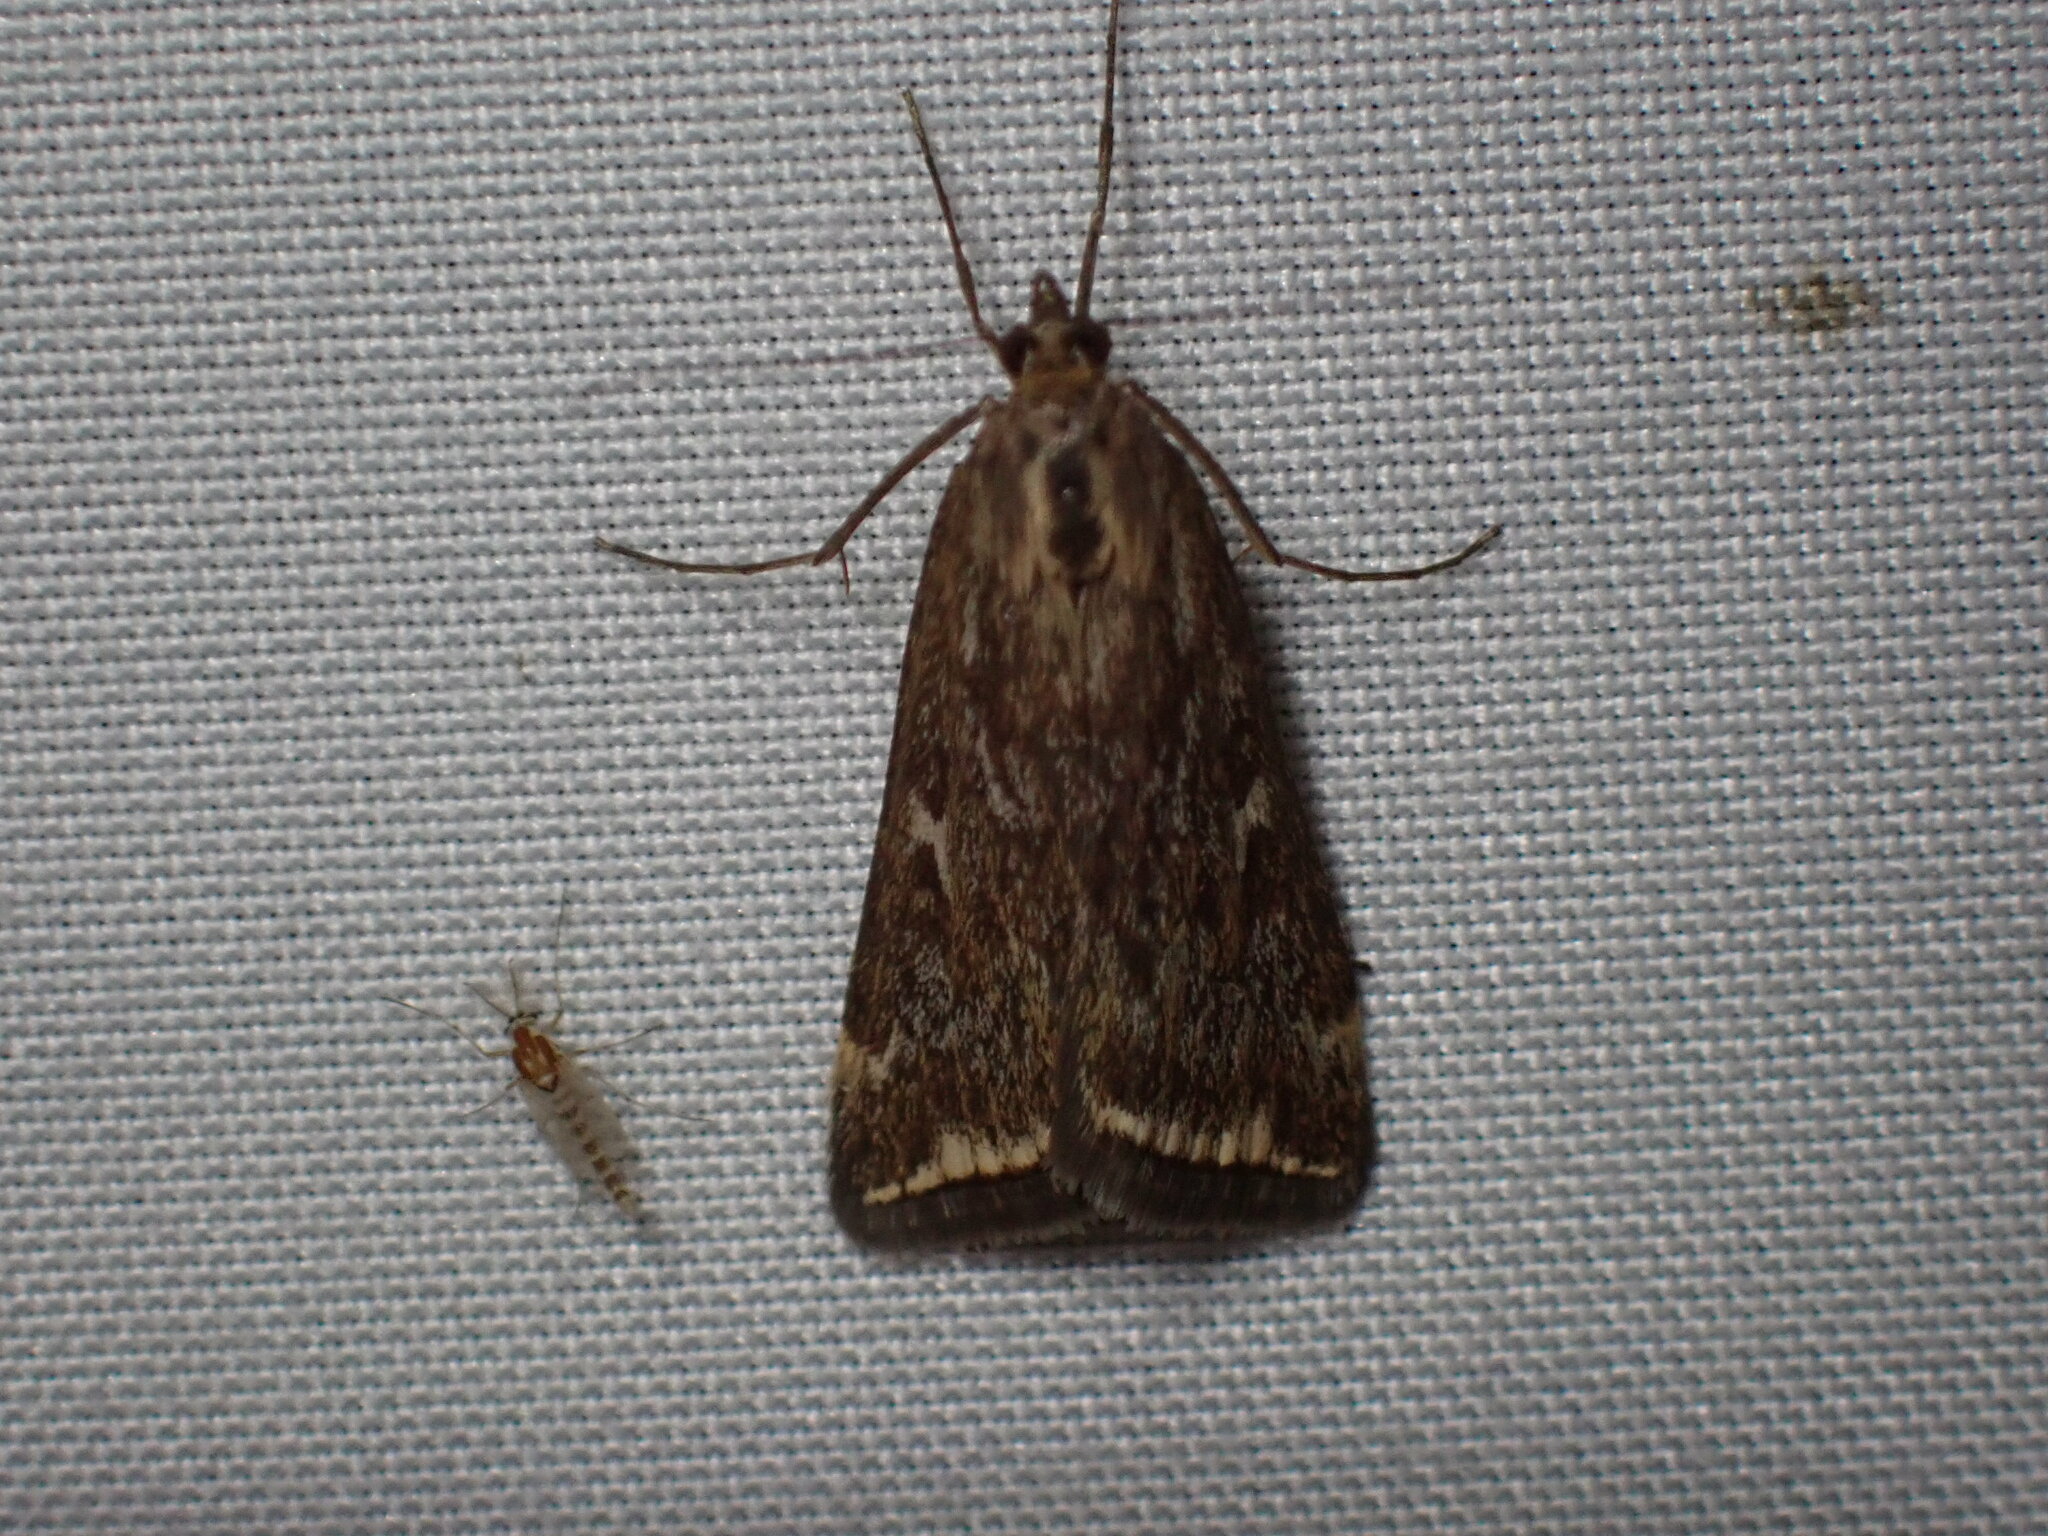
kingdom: Animalia
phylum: Arthropoda
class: Insecta
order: Lepidoptera
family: Crambidae
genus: Loxostege
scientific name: Loxostege
